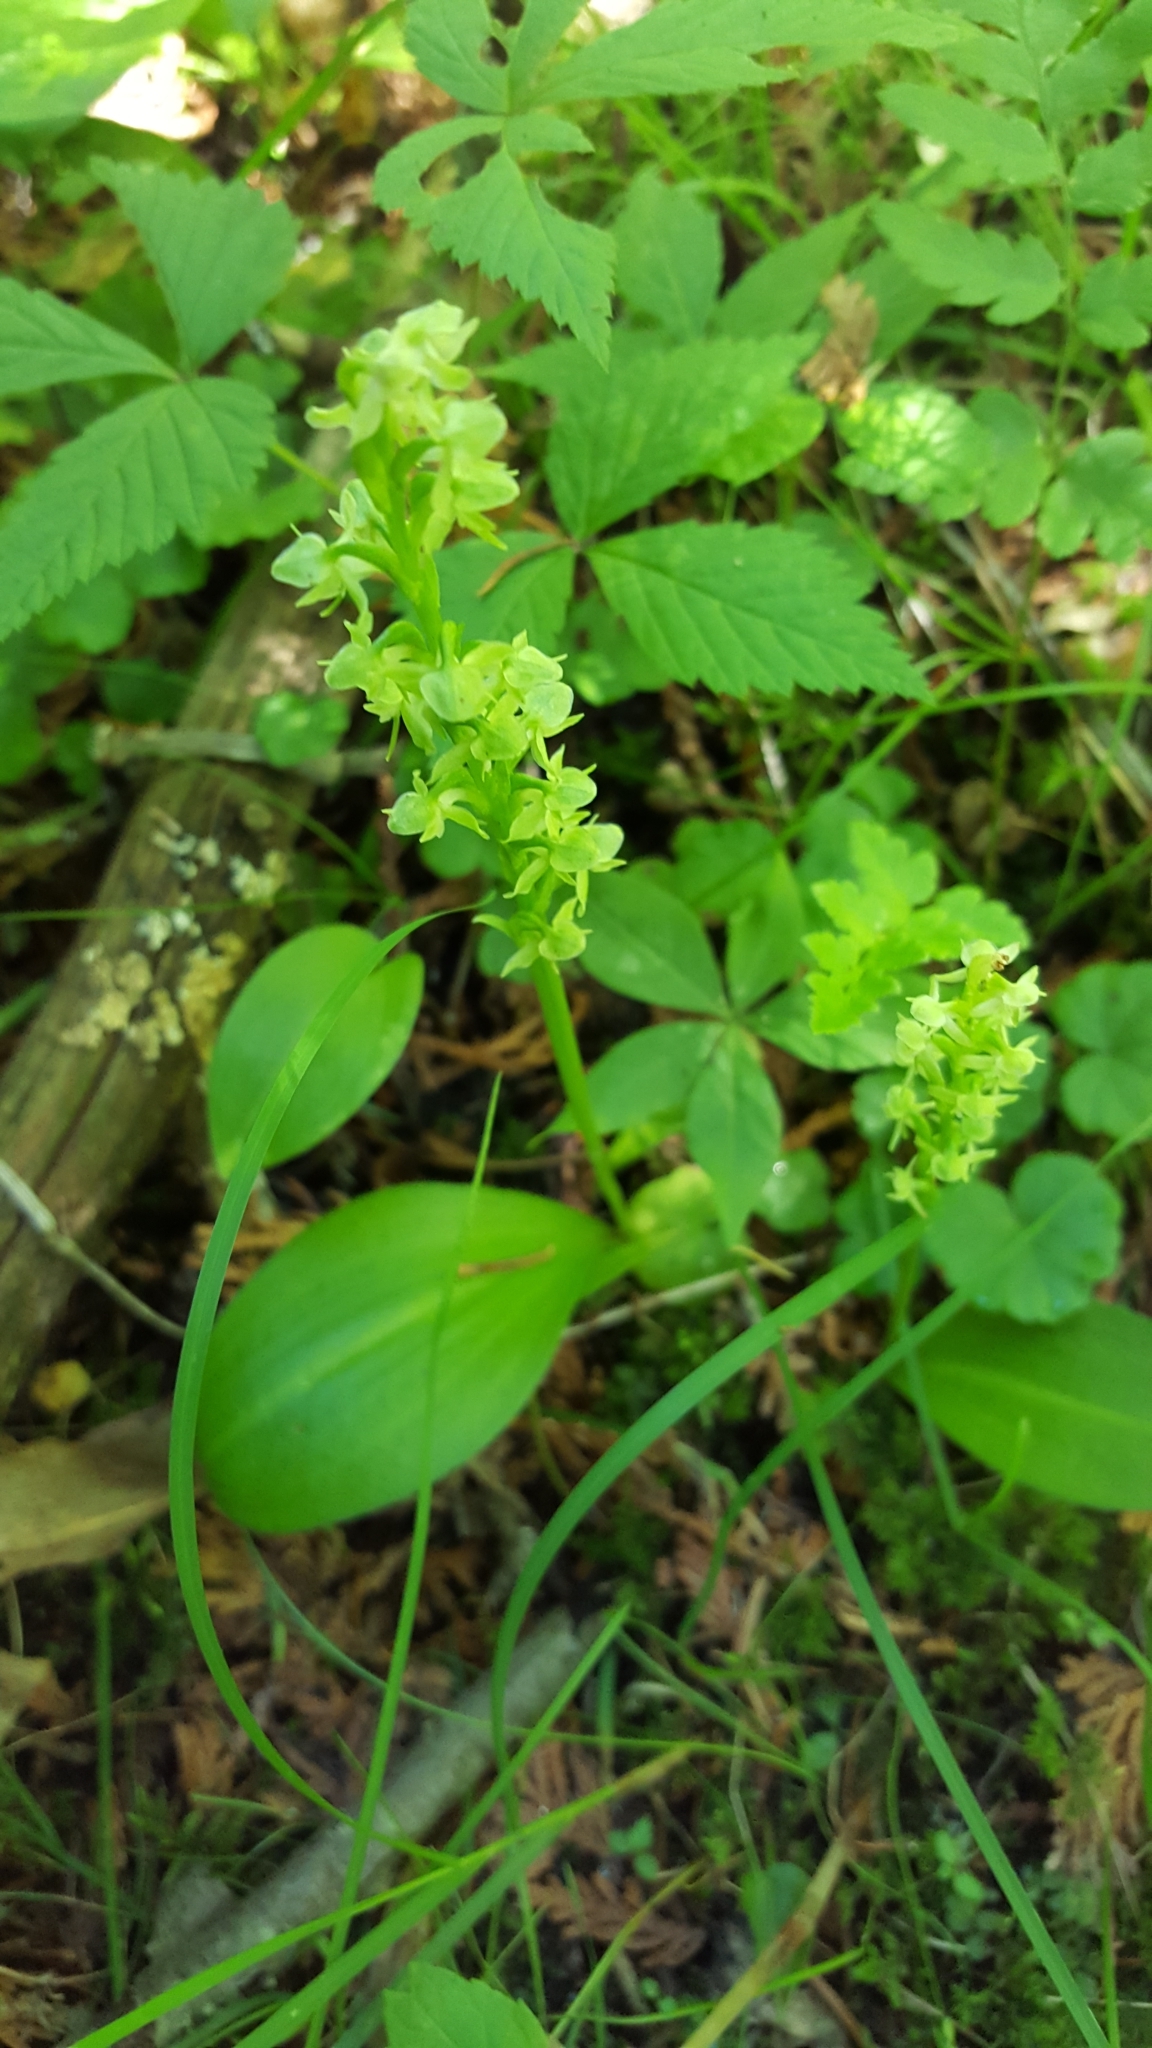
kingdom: Plantae
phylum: Tracheophyta
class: Liliopsida
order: Asparagales
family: Orchidaceae
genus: Platanthera
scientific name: Platanthera obtusata
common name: Blunt bog orchid
